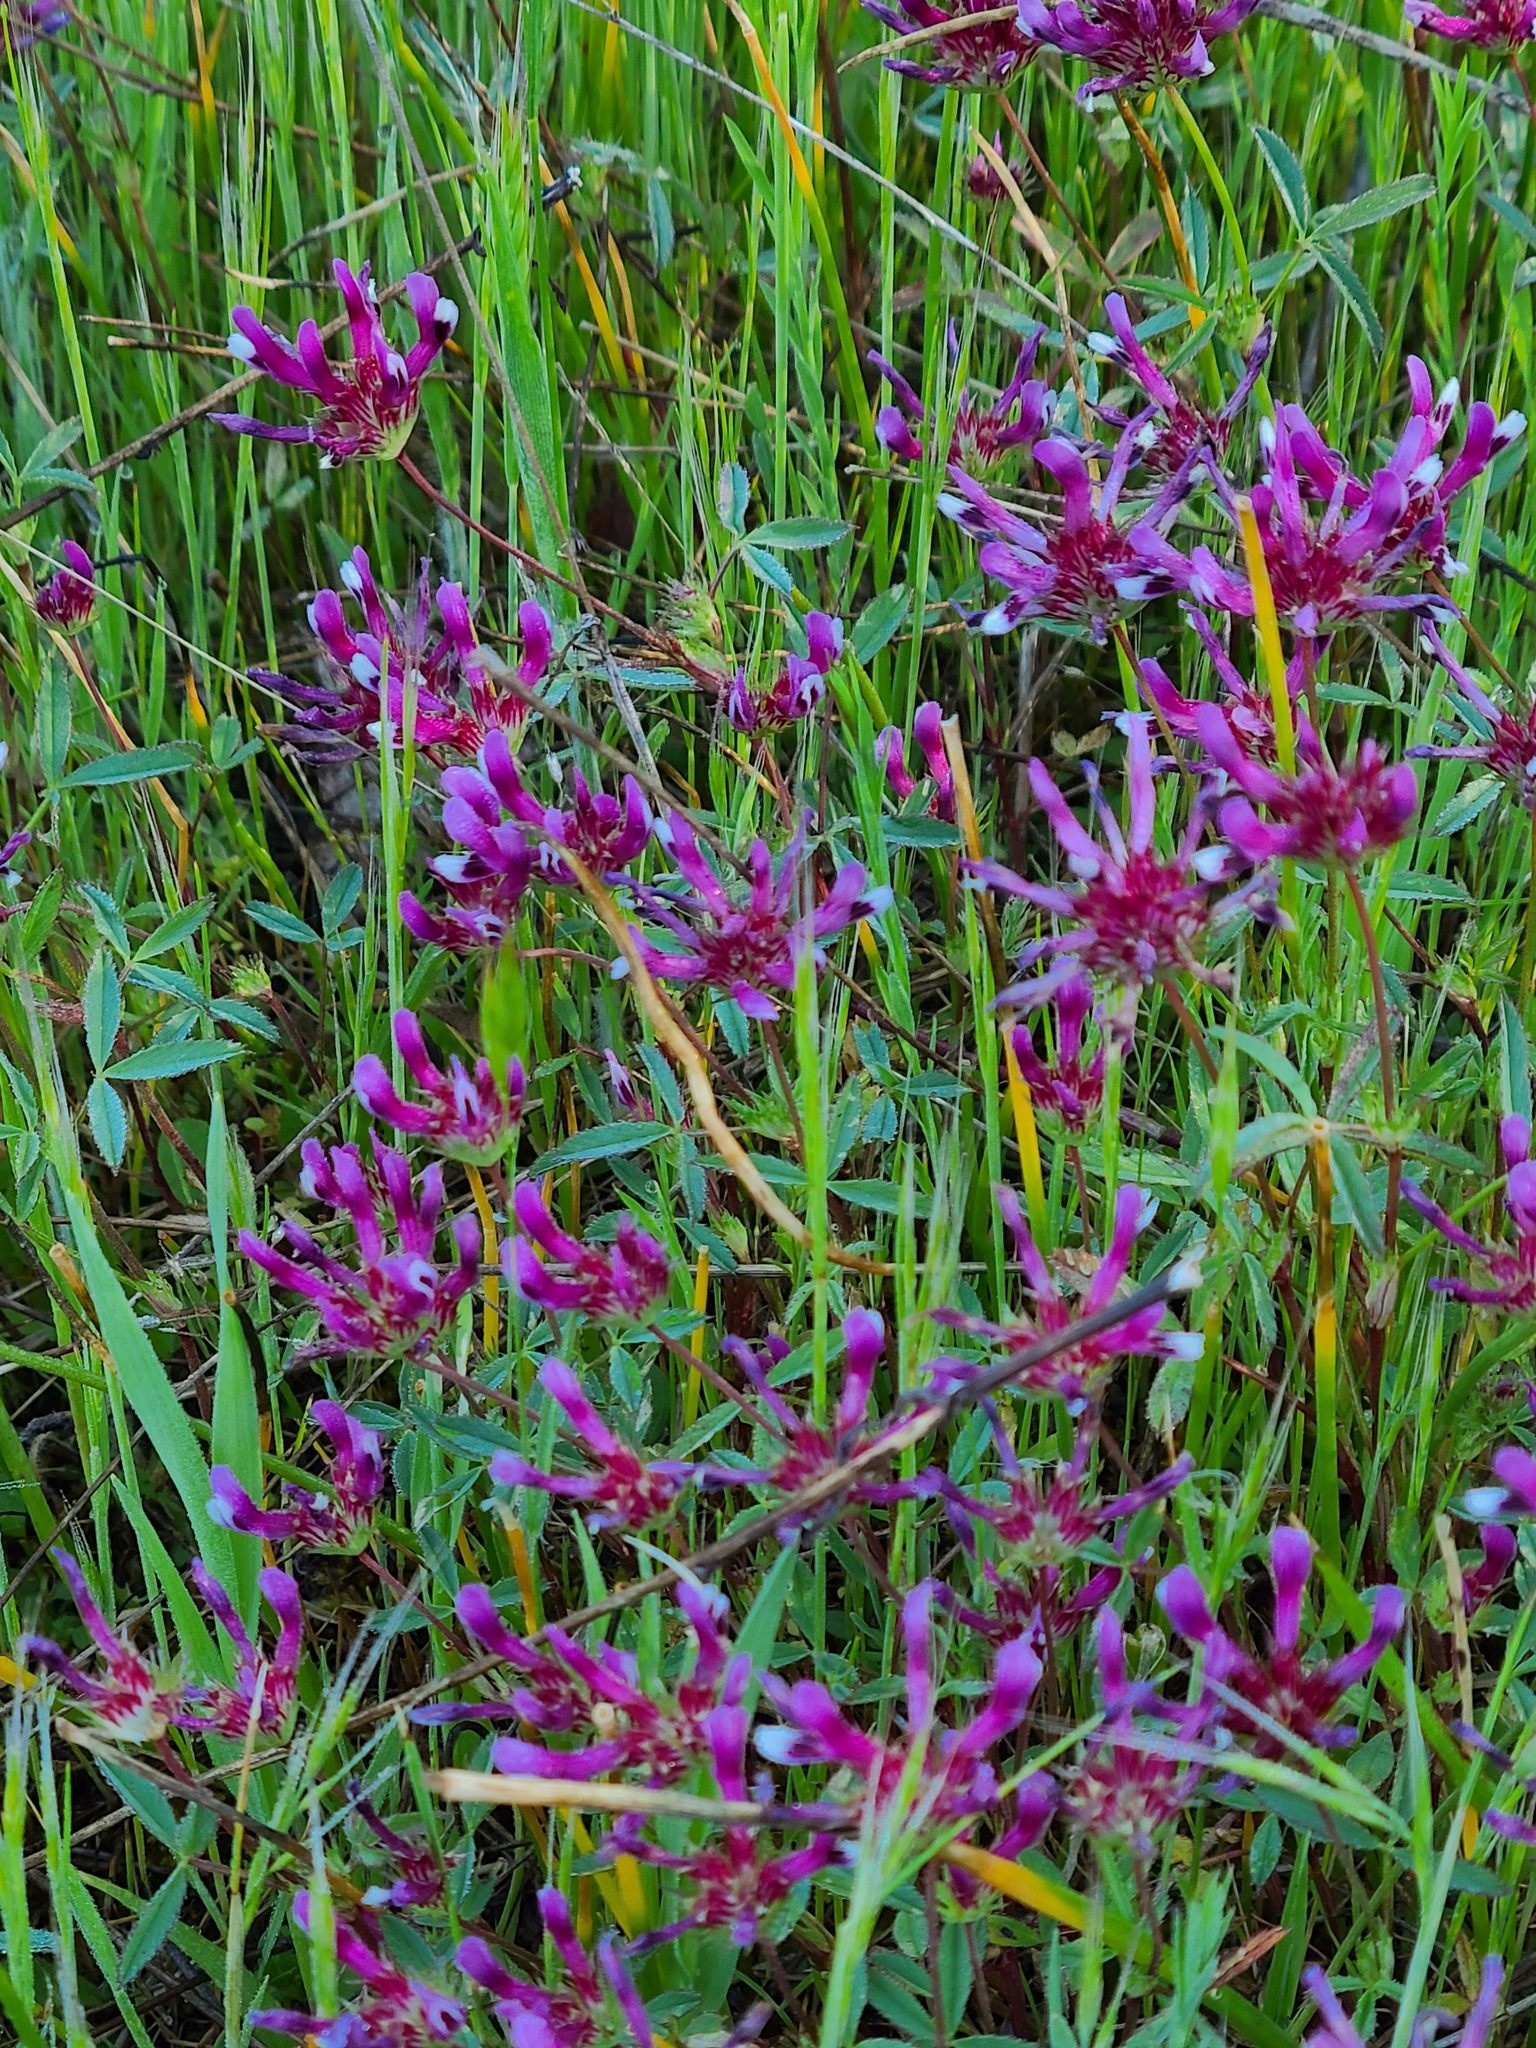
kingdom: Plantae
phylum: Tracheophyta
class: Magnoliopsida
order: Fabales
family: Fabaceae
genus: Trifolium
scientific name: Trifolium willdenovii
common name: Tomcat clover
